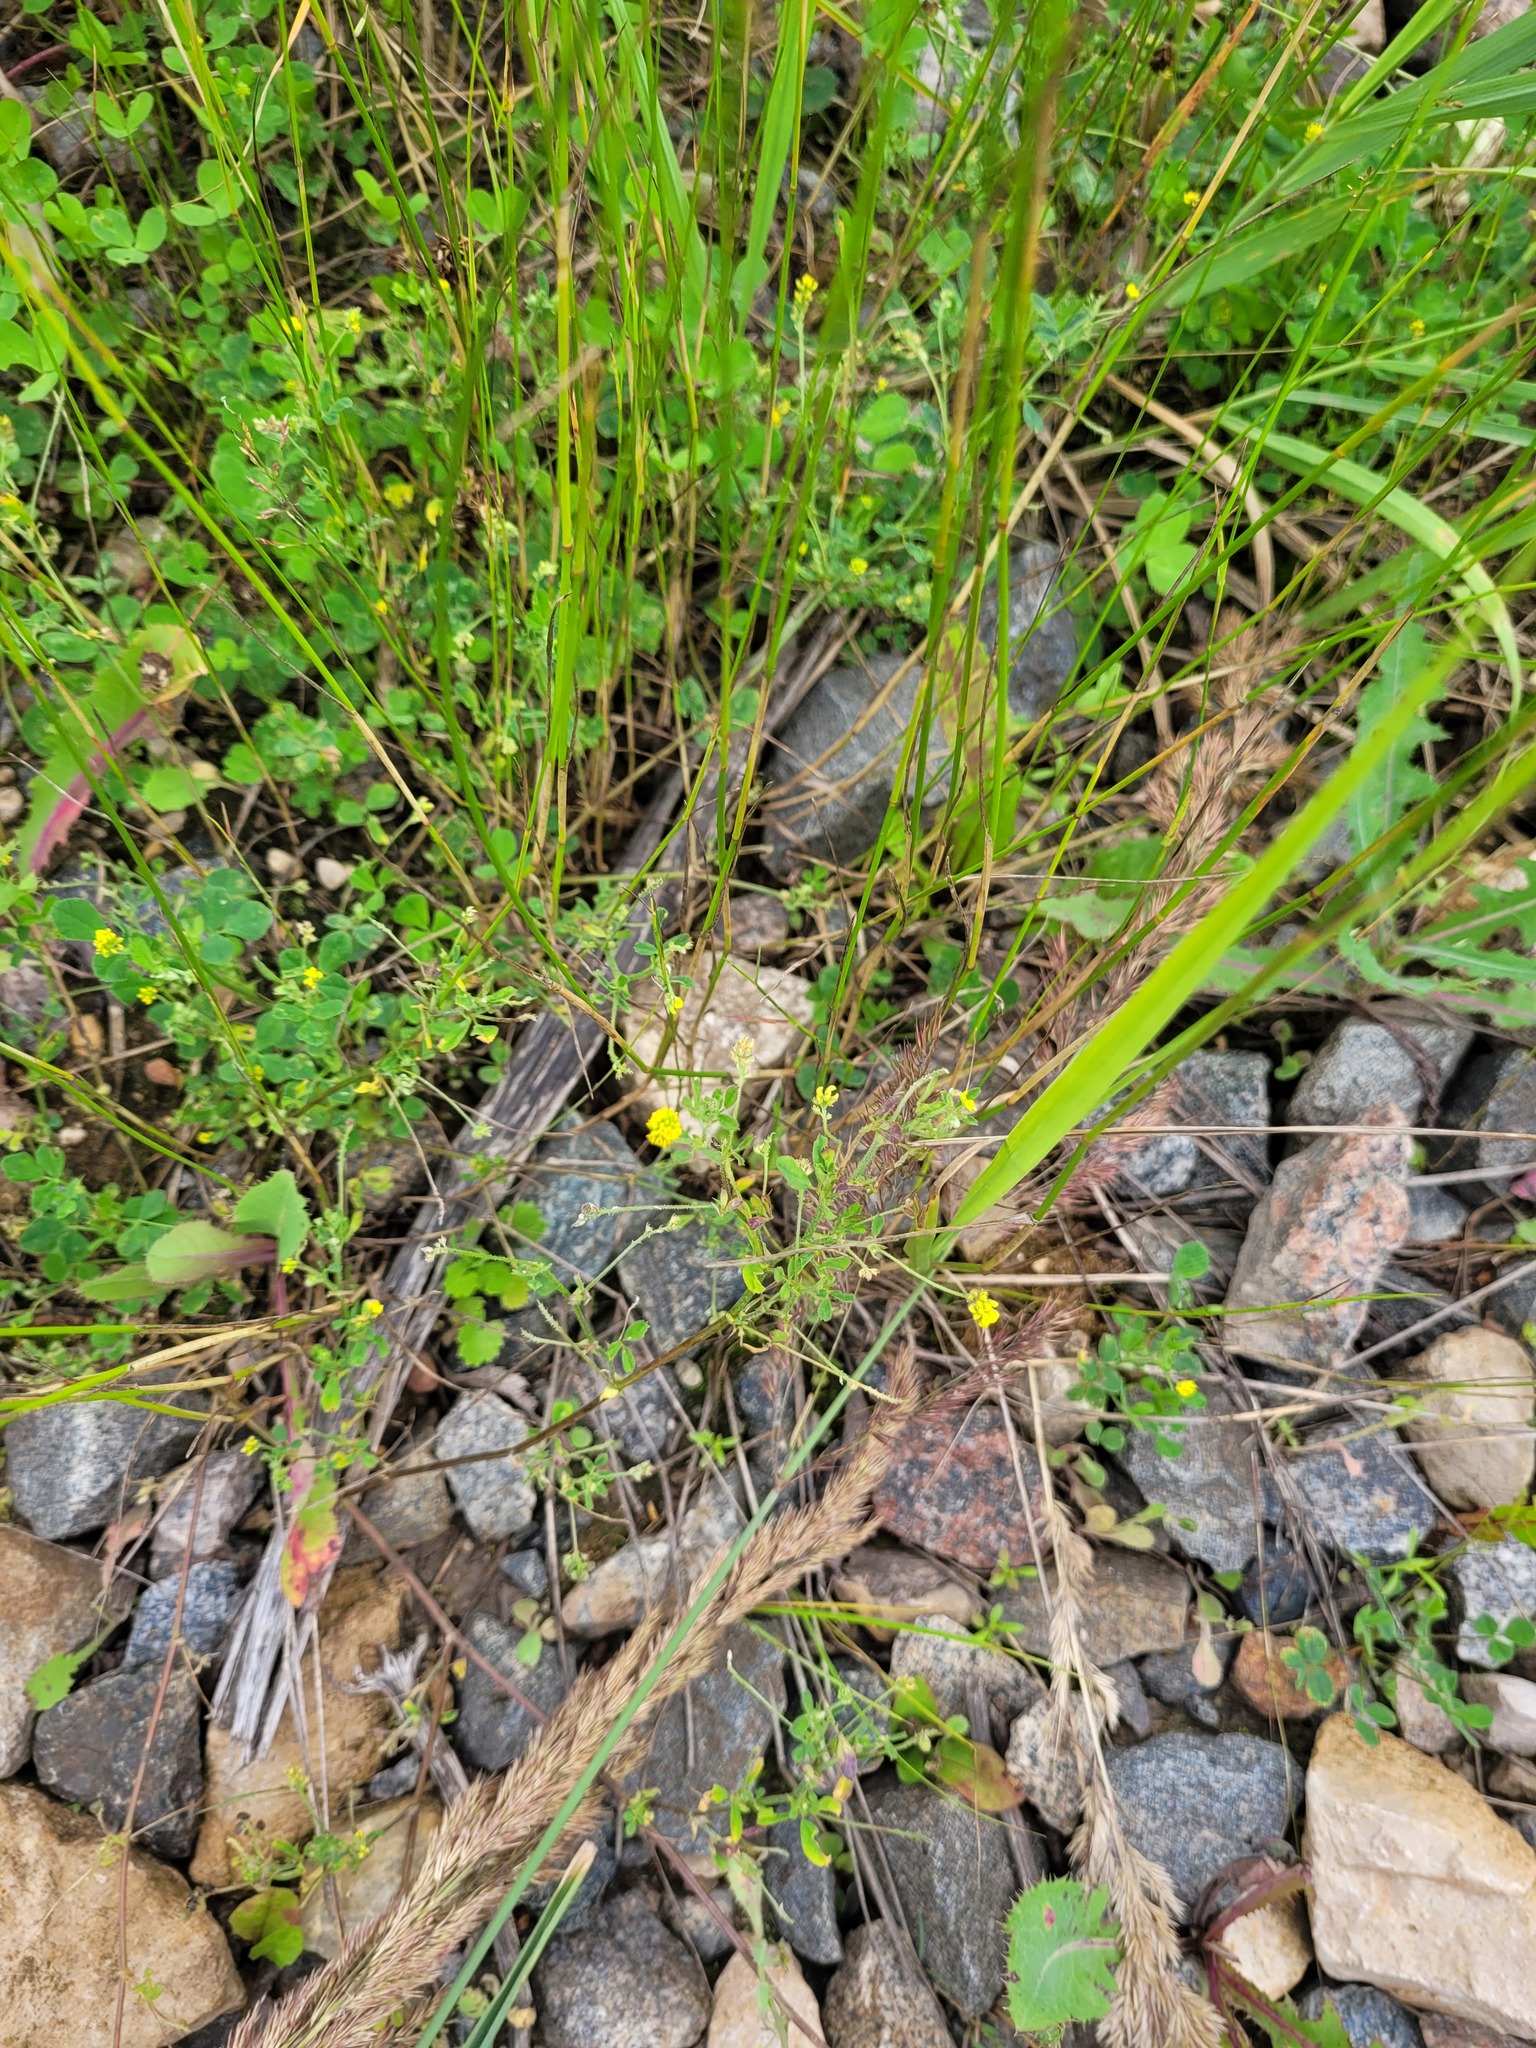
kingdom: Plantae
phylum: Tracheophyta
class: Magnoliopsida
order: Fabales
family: Fabaceae
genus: Medicago
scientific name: Medicago lupulina
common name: Black medick
